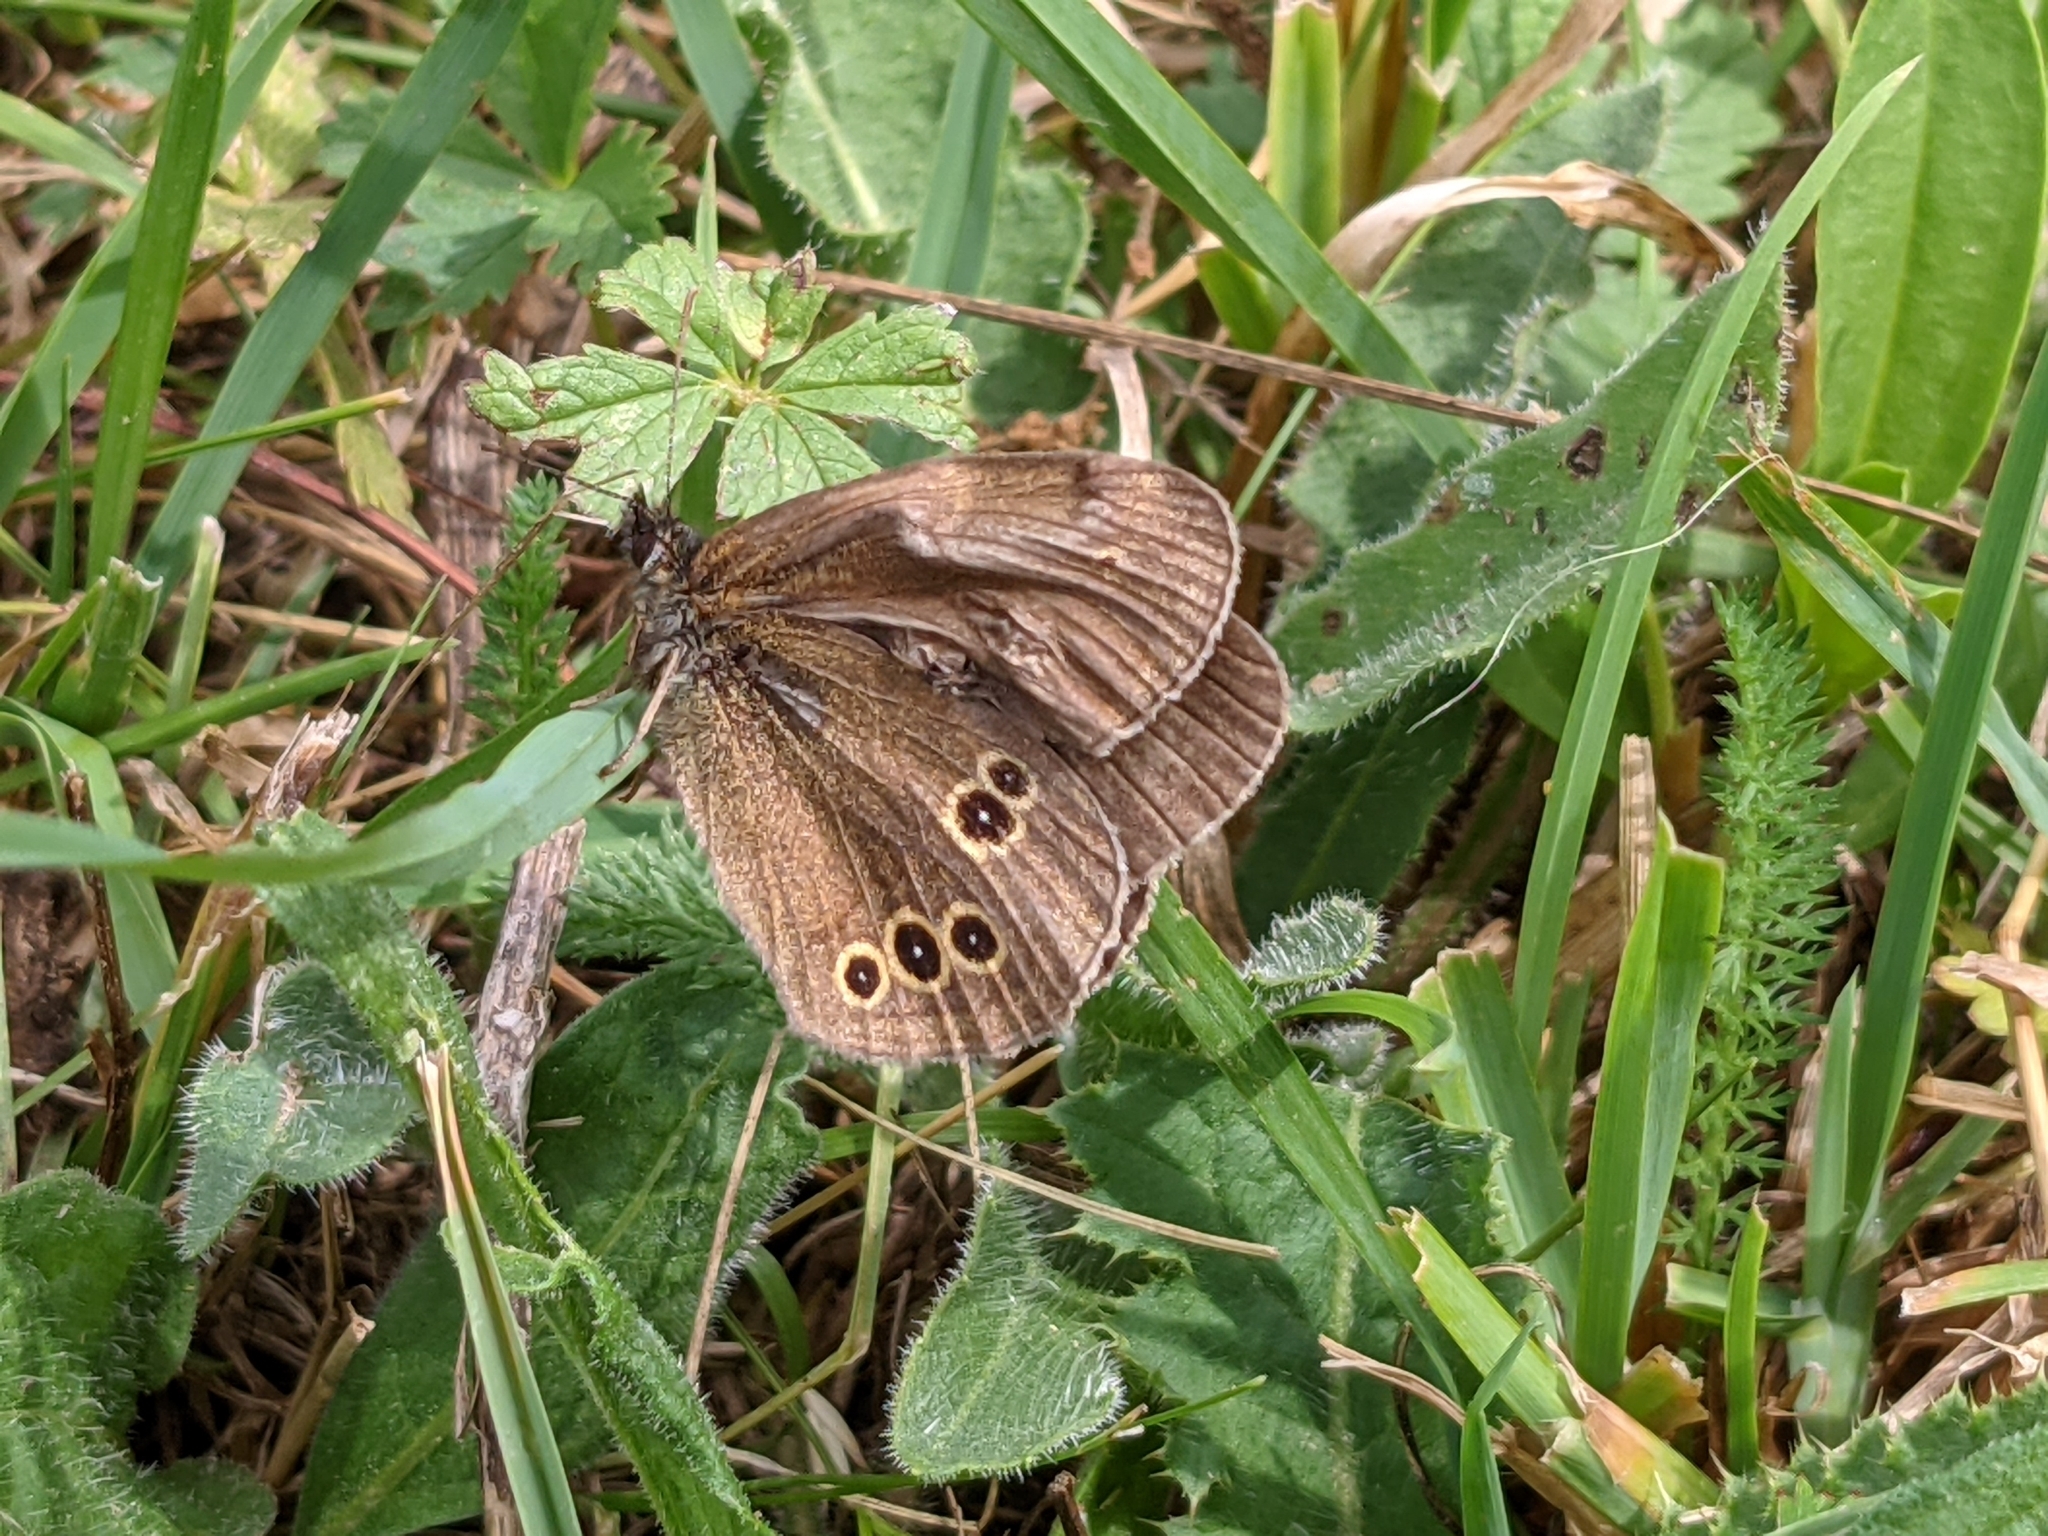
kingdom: Animalia
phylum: Arthropoda
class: Insecta
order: Lepidoptera
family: Nymphalidae
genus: Aphantopus
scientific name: Aphantopus hyperantus
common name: Ringlet
